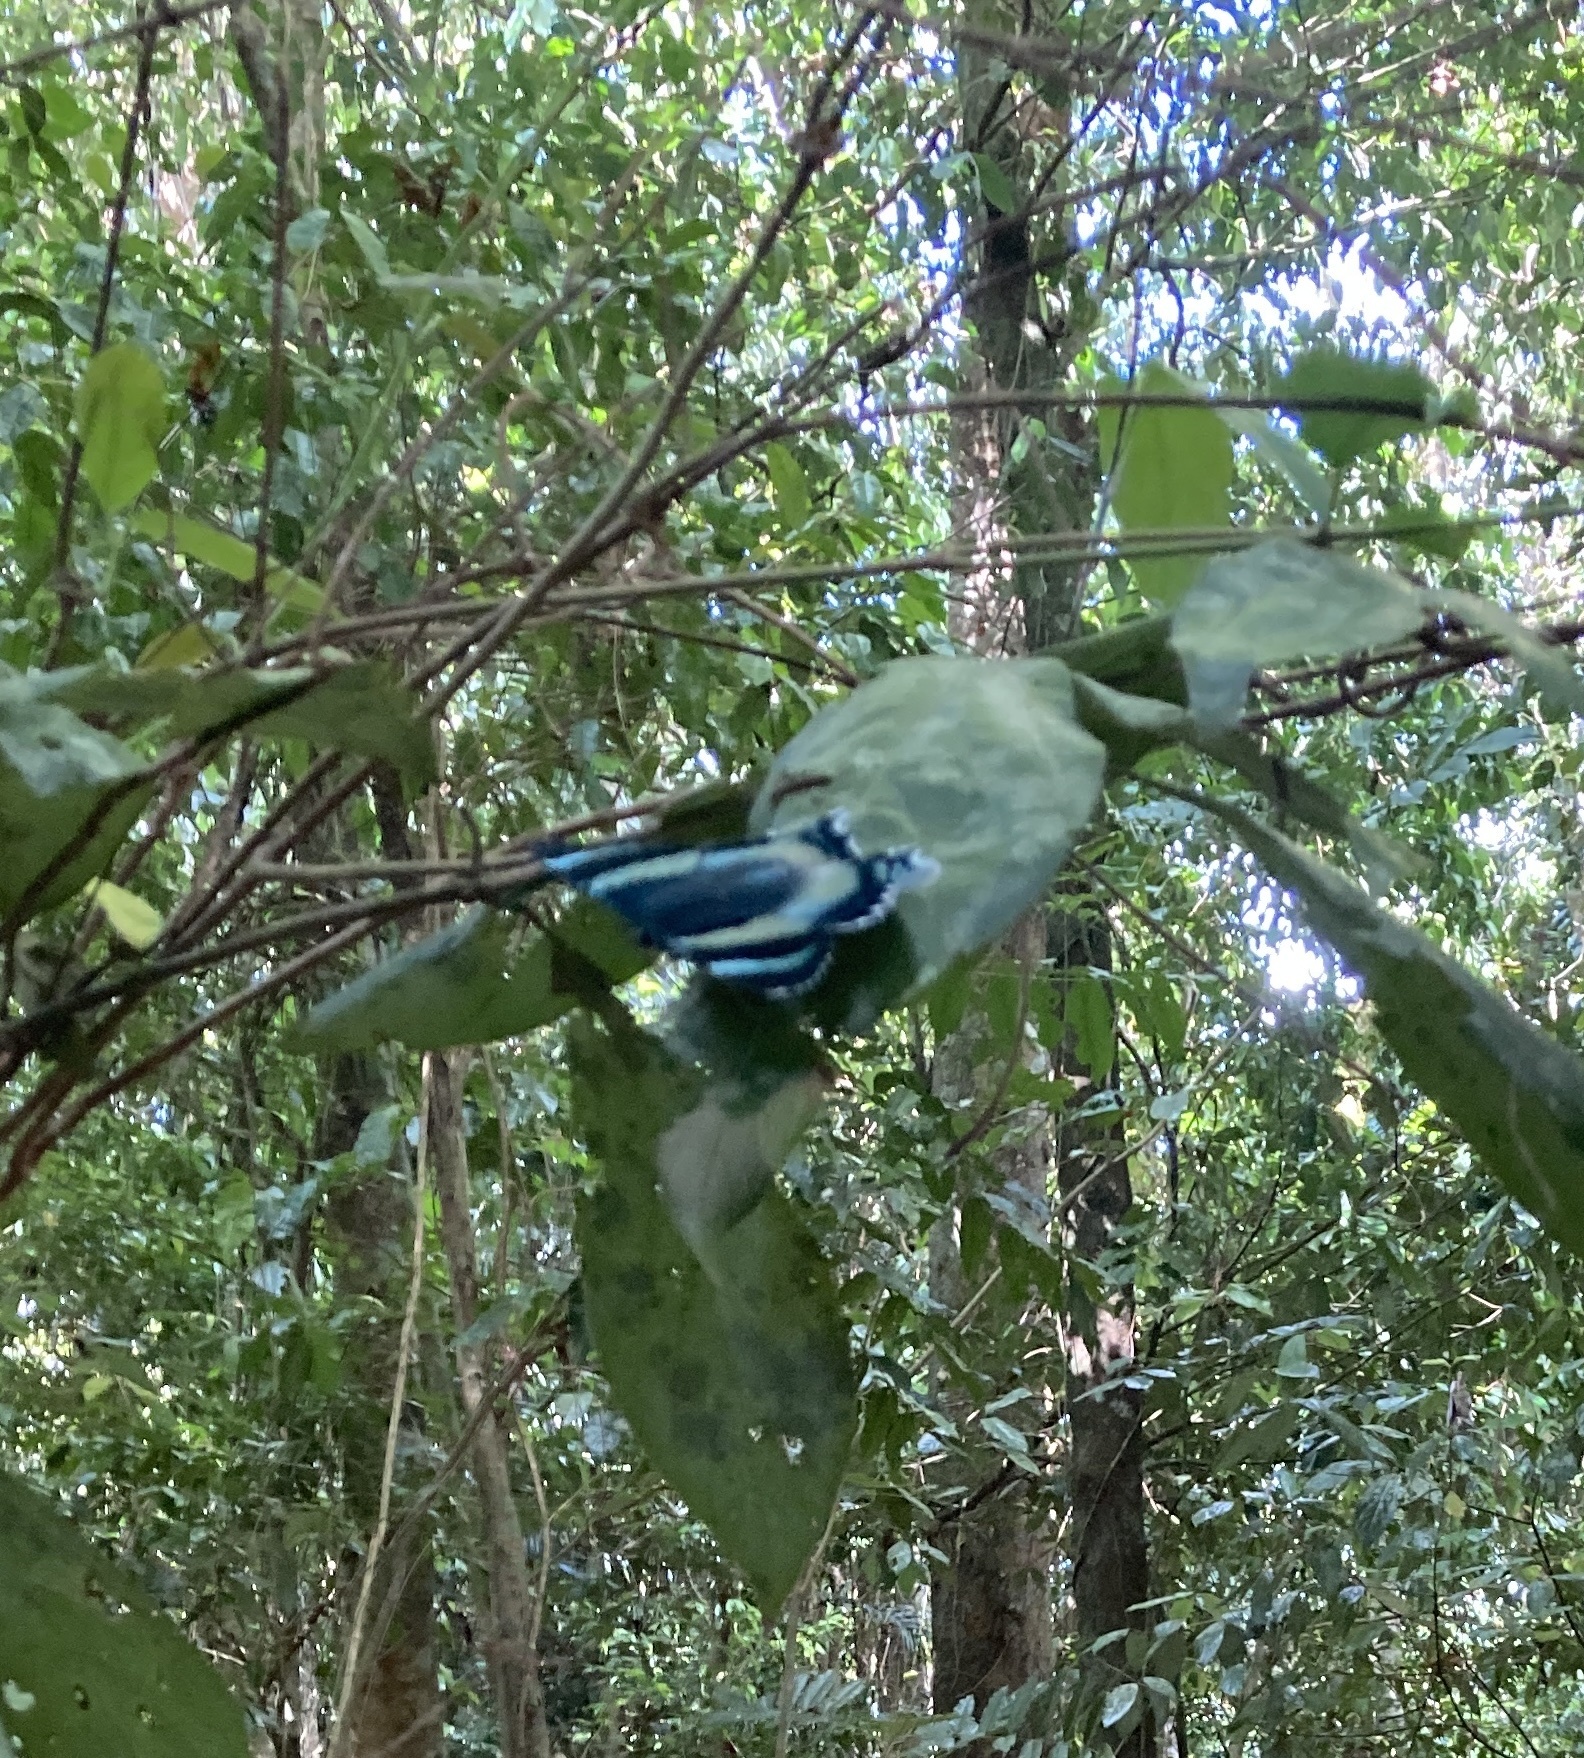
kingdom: Animalia
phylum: Arthropoda
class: Insecta
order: Lepidoptera
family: Uraniidae
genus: Alcides
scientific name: Alcides metaurus
